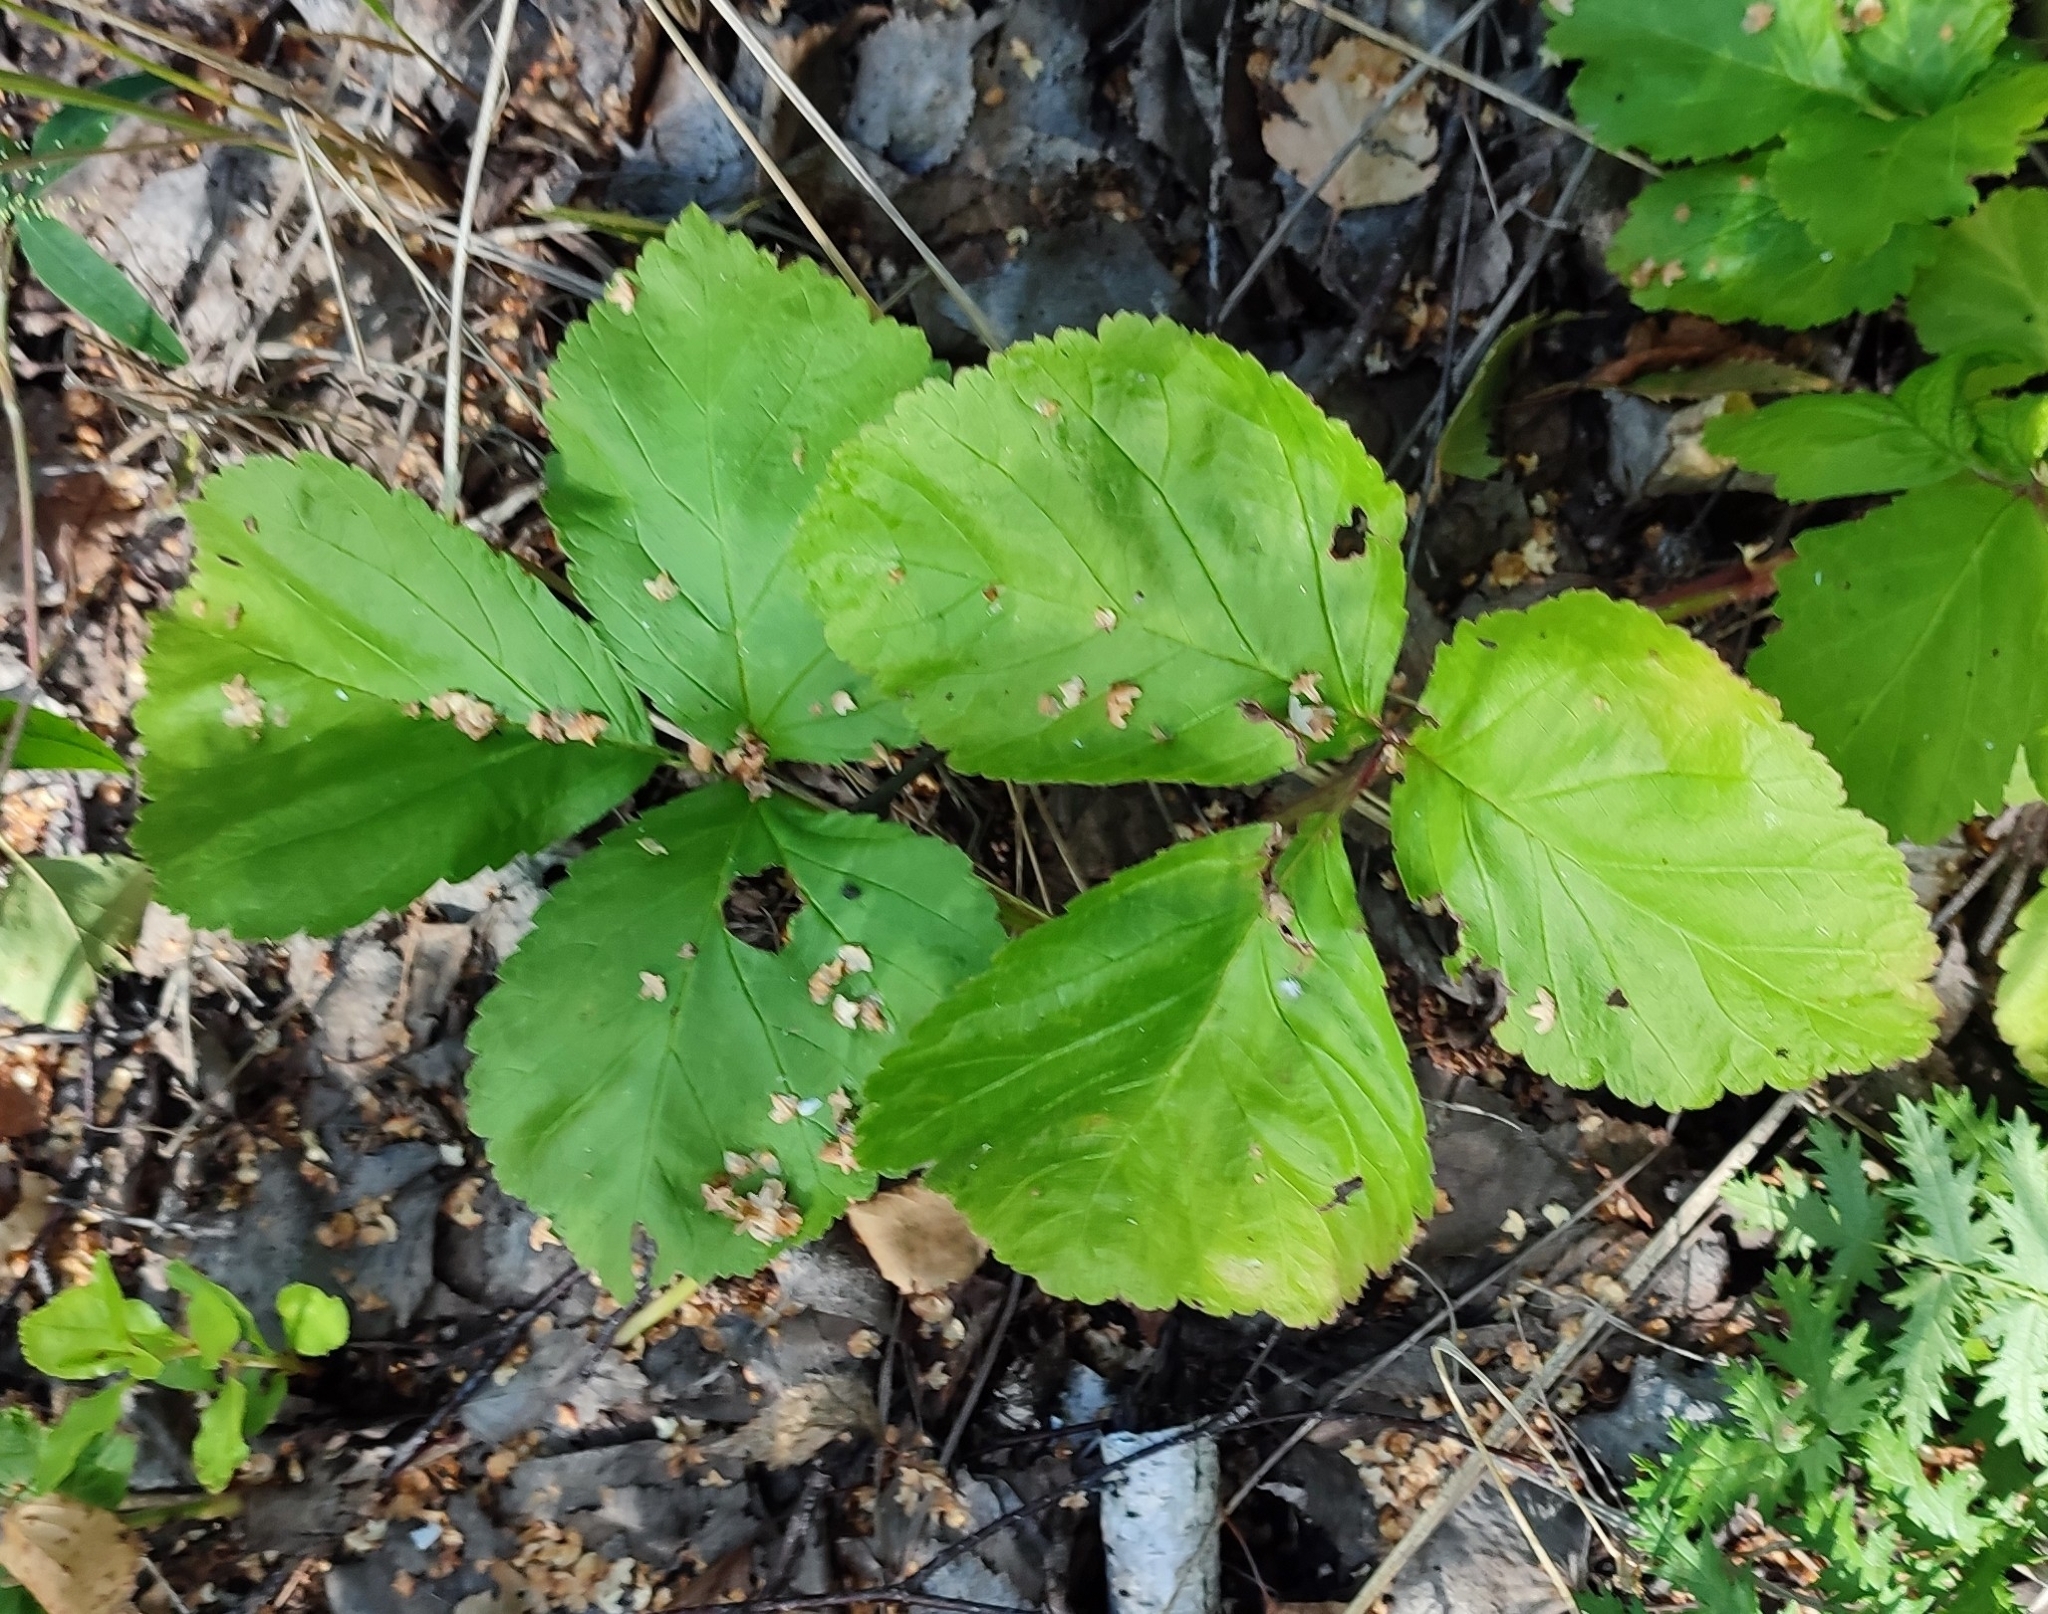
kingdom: Plantae
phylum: Tracheophyta
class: Magnoliopsida
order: Rosales
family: Rosaceae
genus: Rubus
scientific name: Rubus saxatilis
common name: Stone bramble
